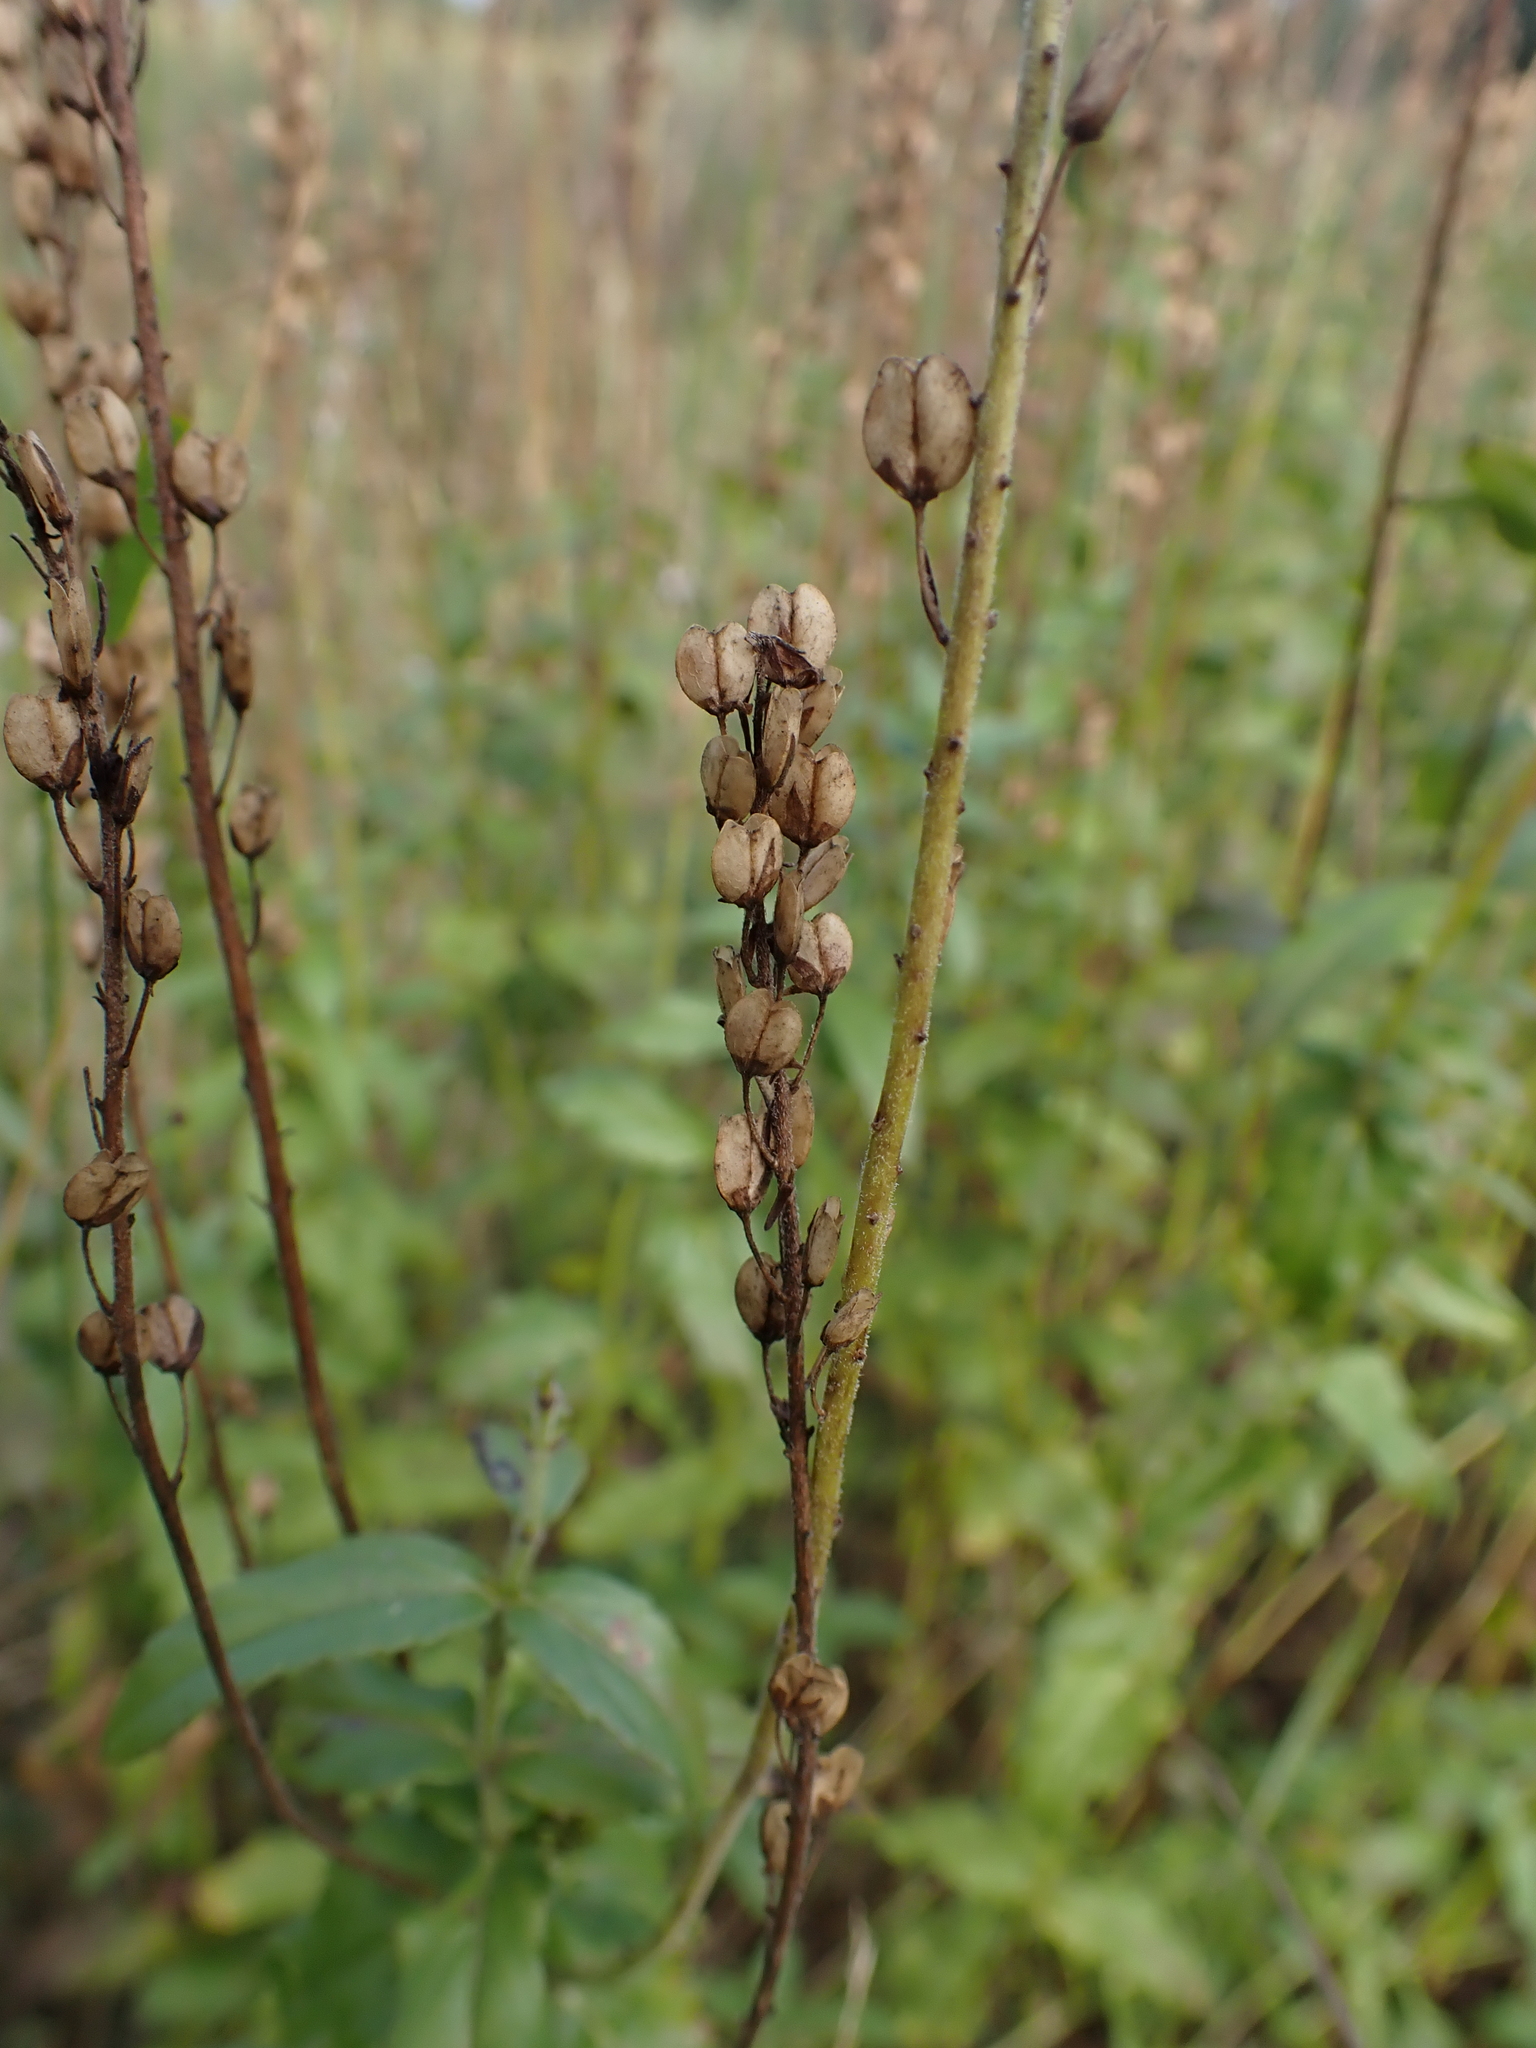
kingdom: Plantae
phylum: Tracheophyta
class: Magnoliopsida
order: Lamiales
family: Plantaginaceae
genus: Veronica
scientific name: Veronica teucrium
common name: Large speedwell
